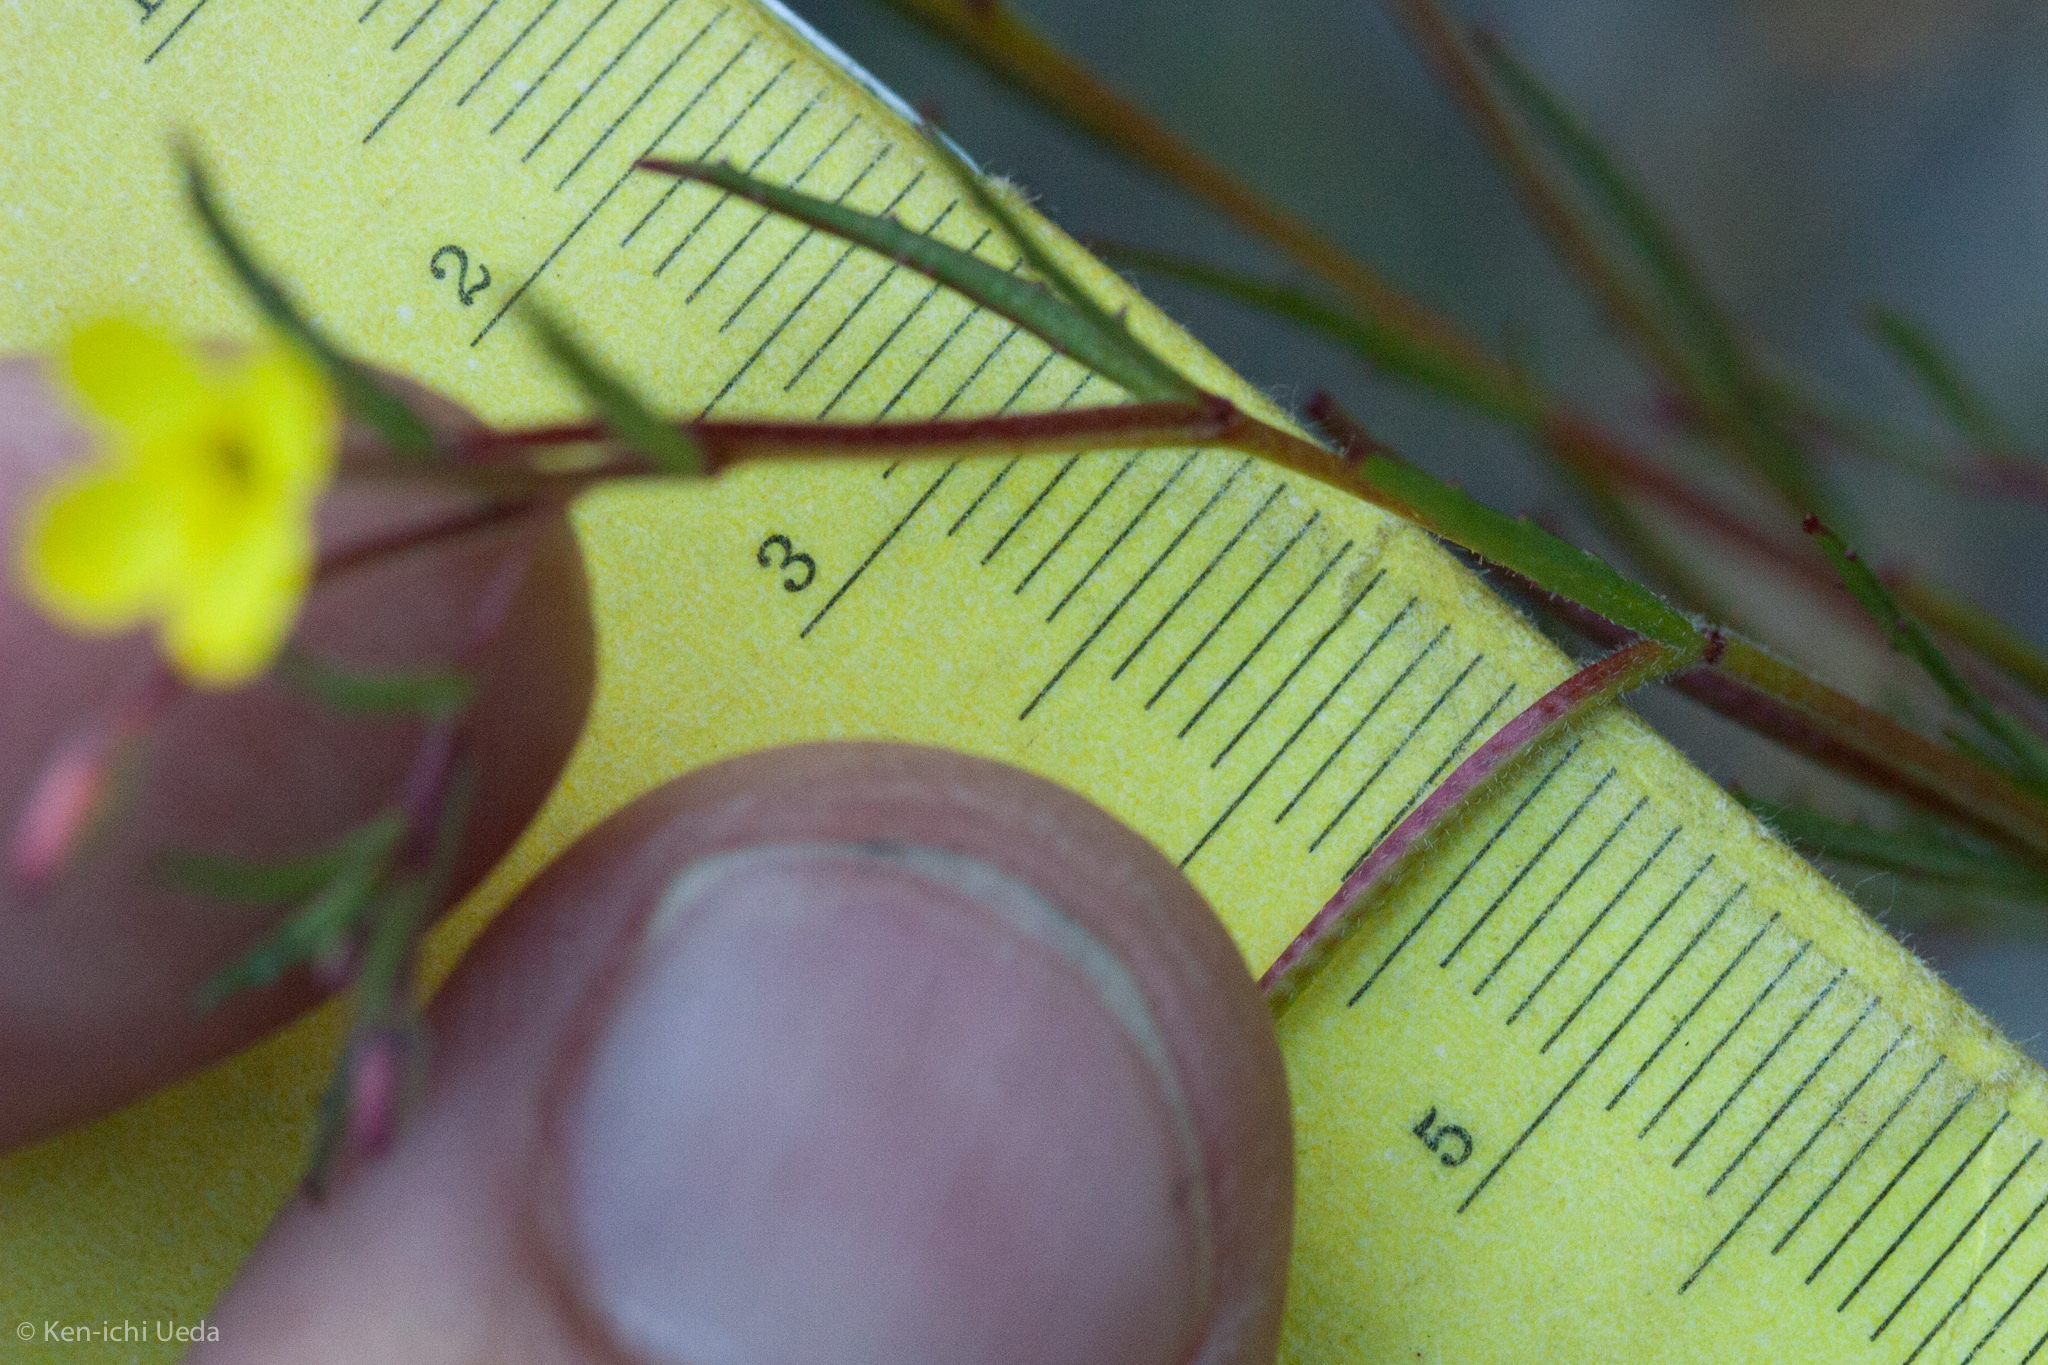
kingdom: Plantae
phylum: Tracheophyta
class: Magnoliopsida
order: Myrtales
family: Onagraceae
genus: Camissoniopsis
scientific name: Camissoniopsis micrantha
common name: Miniature suncup
